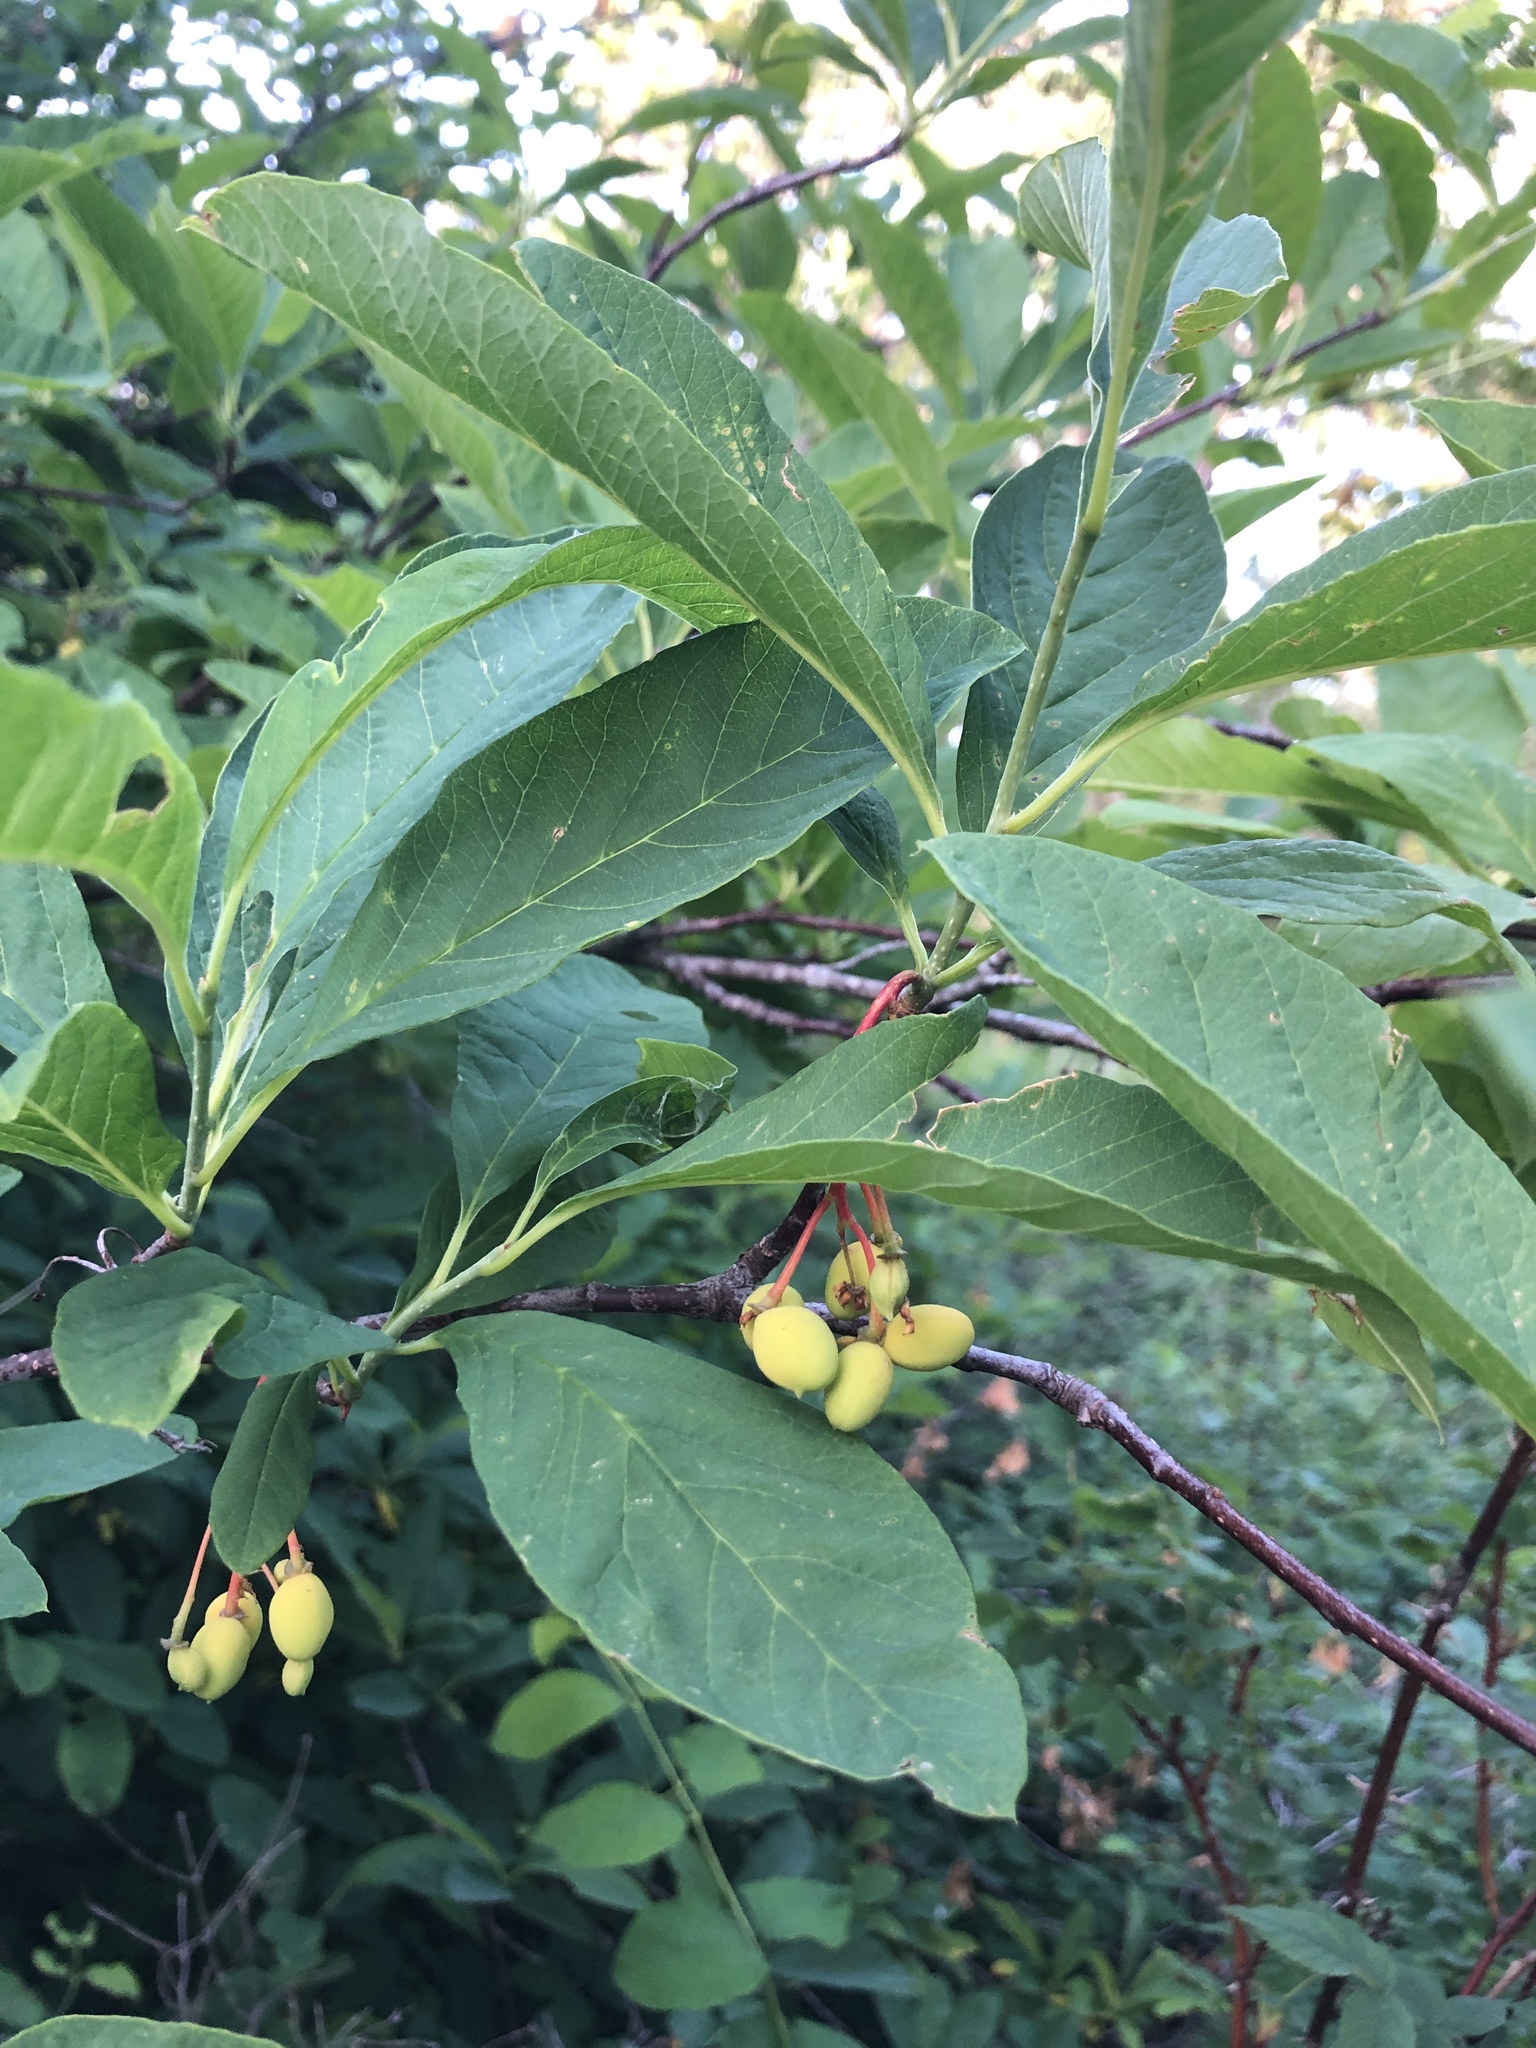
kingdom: Plantae
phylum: Tracheophyta
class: Magnoliopsida
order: Rosales
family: Rosaceae
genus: Oemleria
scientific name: Oemleria cerasiformis
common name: Osoberry
